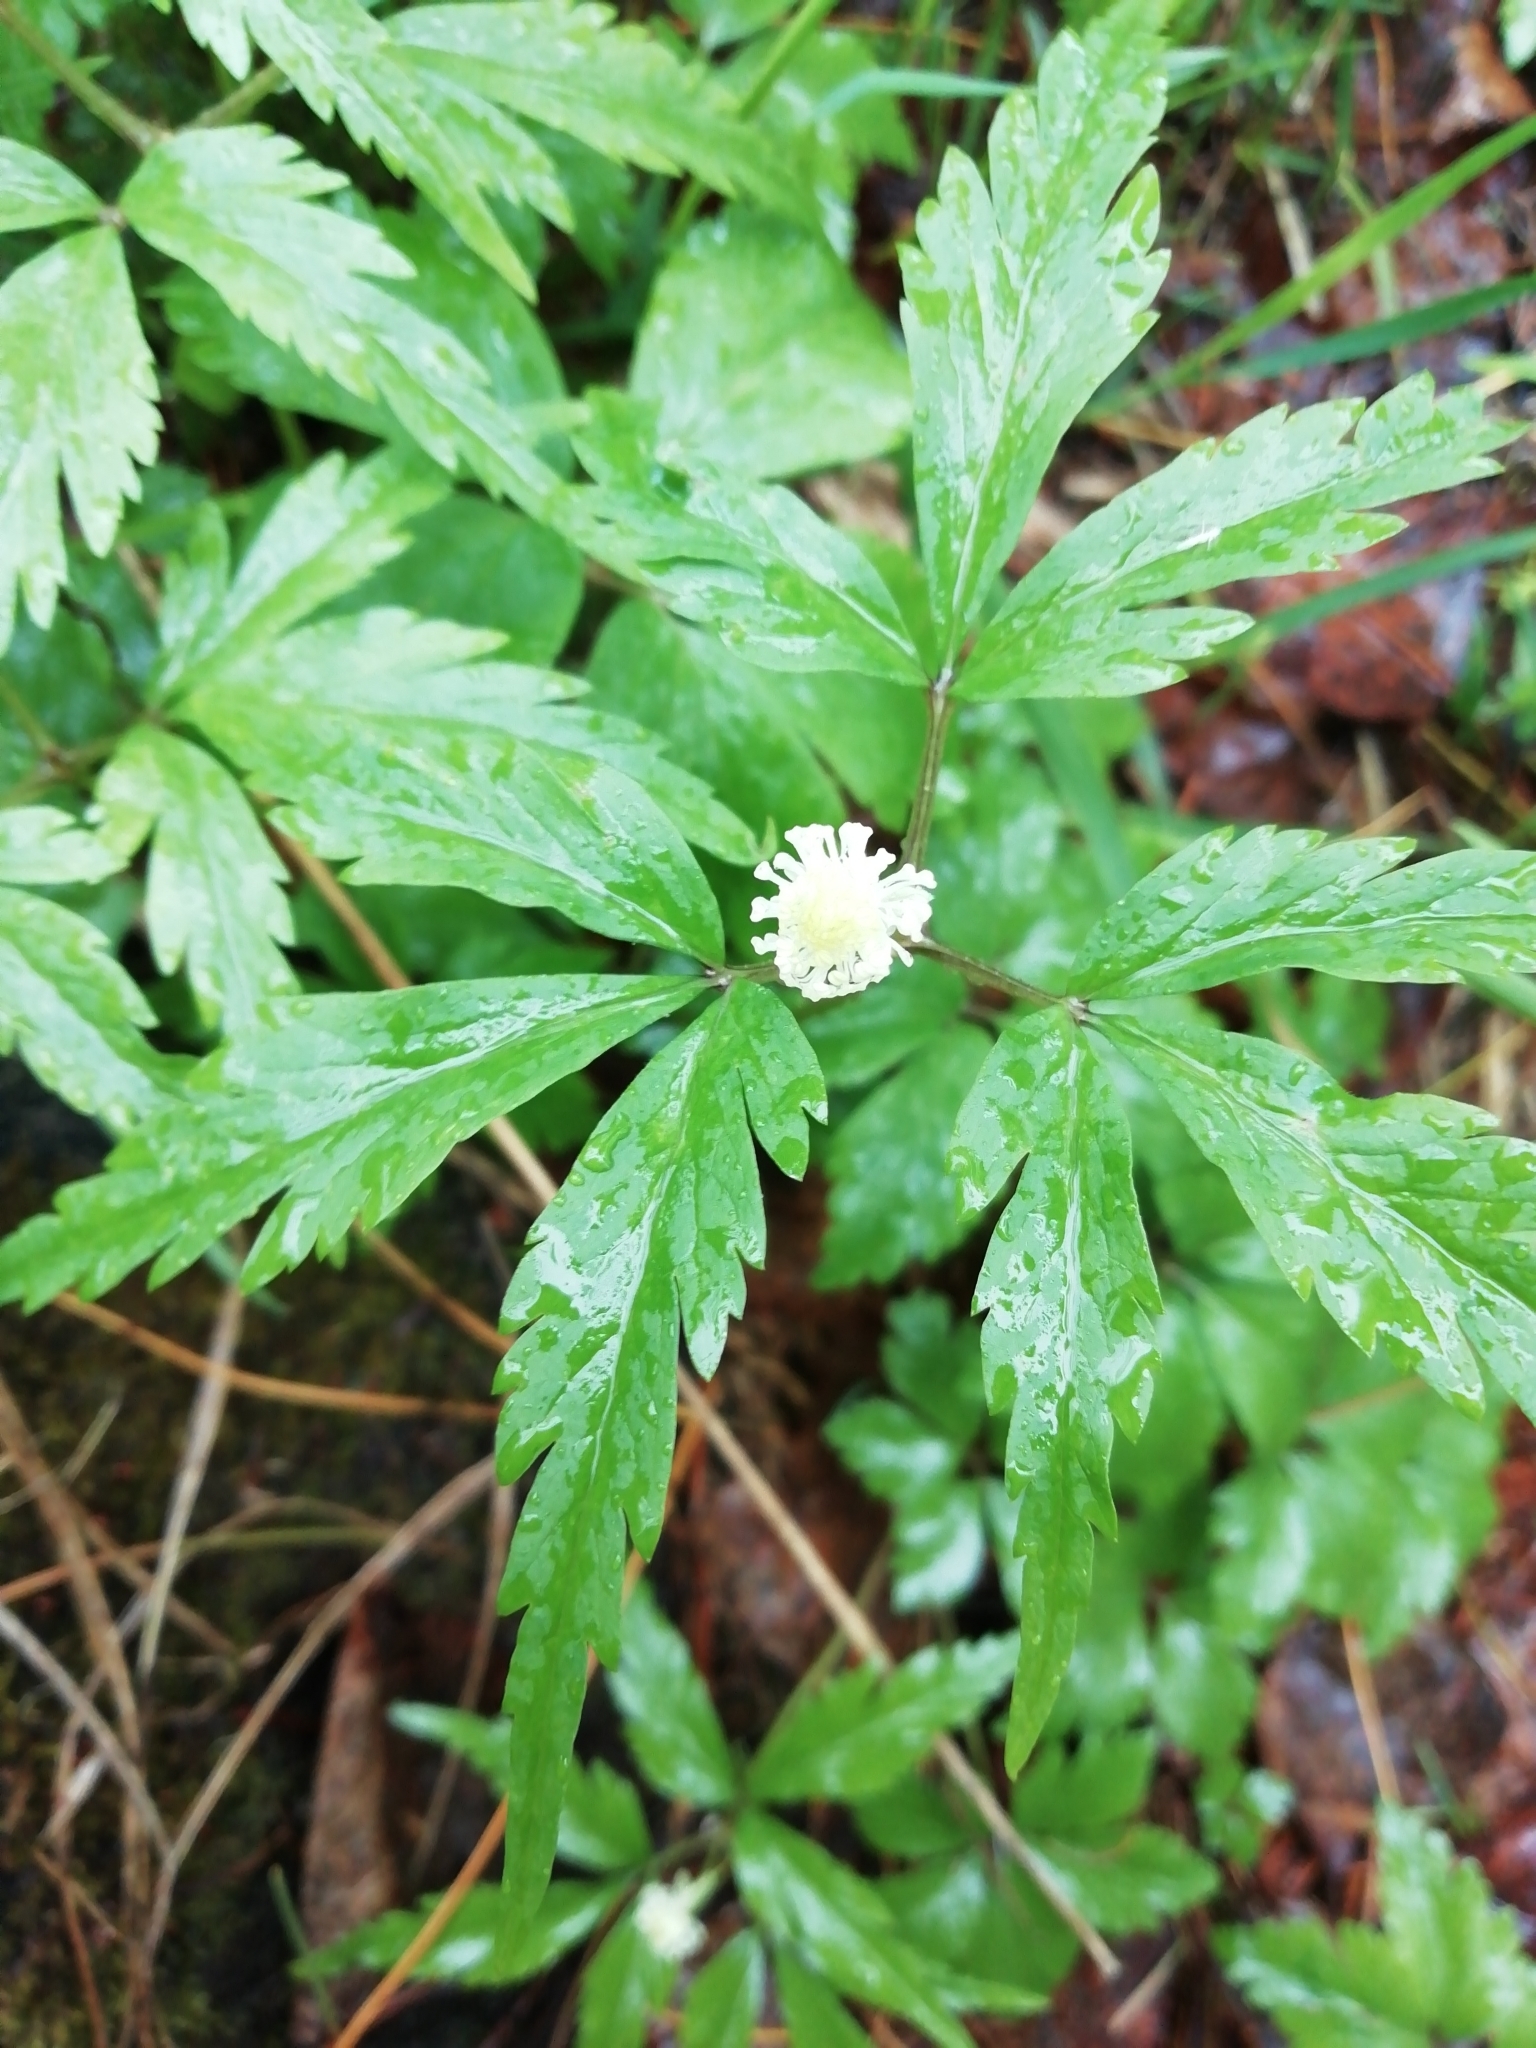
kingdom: Plantae
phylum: Tracheophyta
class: Magnoliopsida
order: Ranunculales
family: Ranunculaceae
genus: Anemone
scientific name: Anemone reflexa
